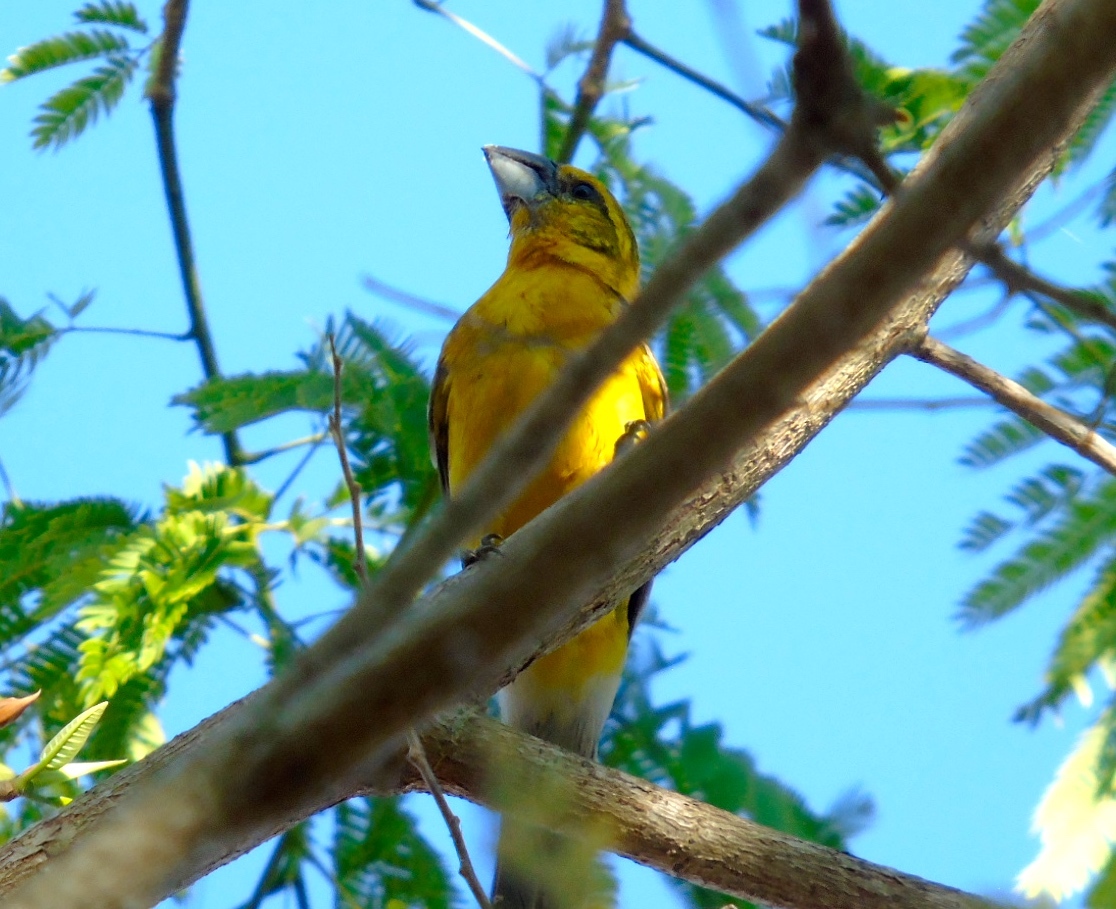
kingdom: Animalia
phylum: Chordata
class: Aves
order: Passeriformes
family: Cardinalidae
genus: Pheucticus
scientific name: Pheucticus chrysopeplus
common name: Yellow grosbeak
